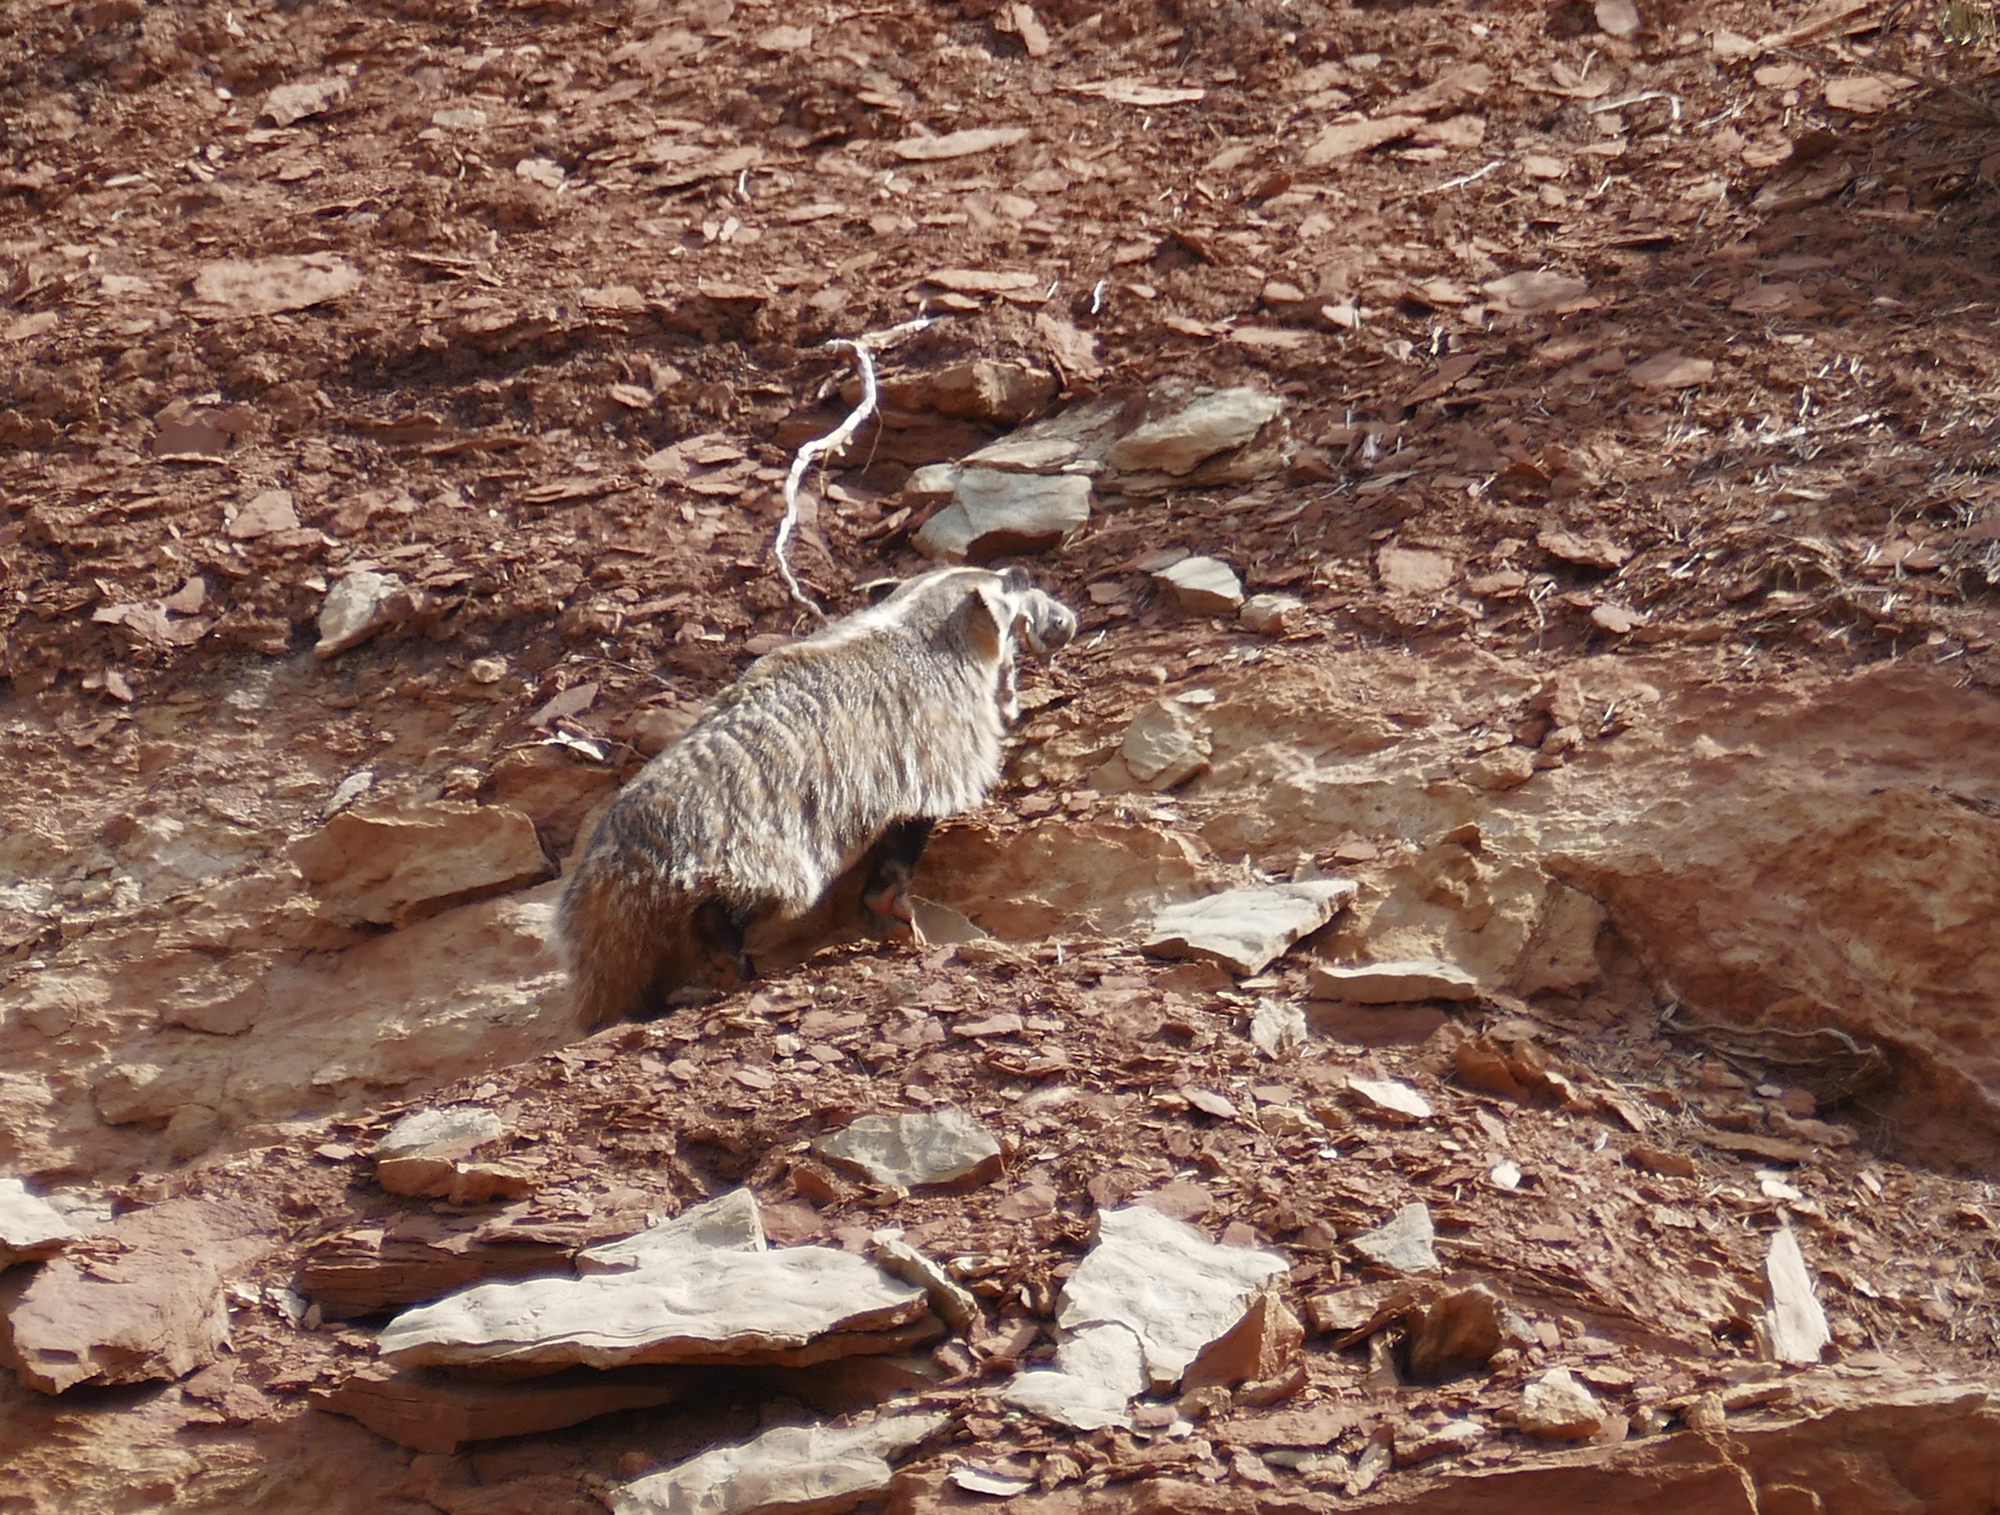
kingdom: Animalia
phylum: Chordata
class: Mammalia
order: Carnivora
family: Mustelidae
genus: Taxidea
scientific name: Taxidea taxus
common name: American badger
